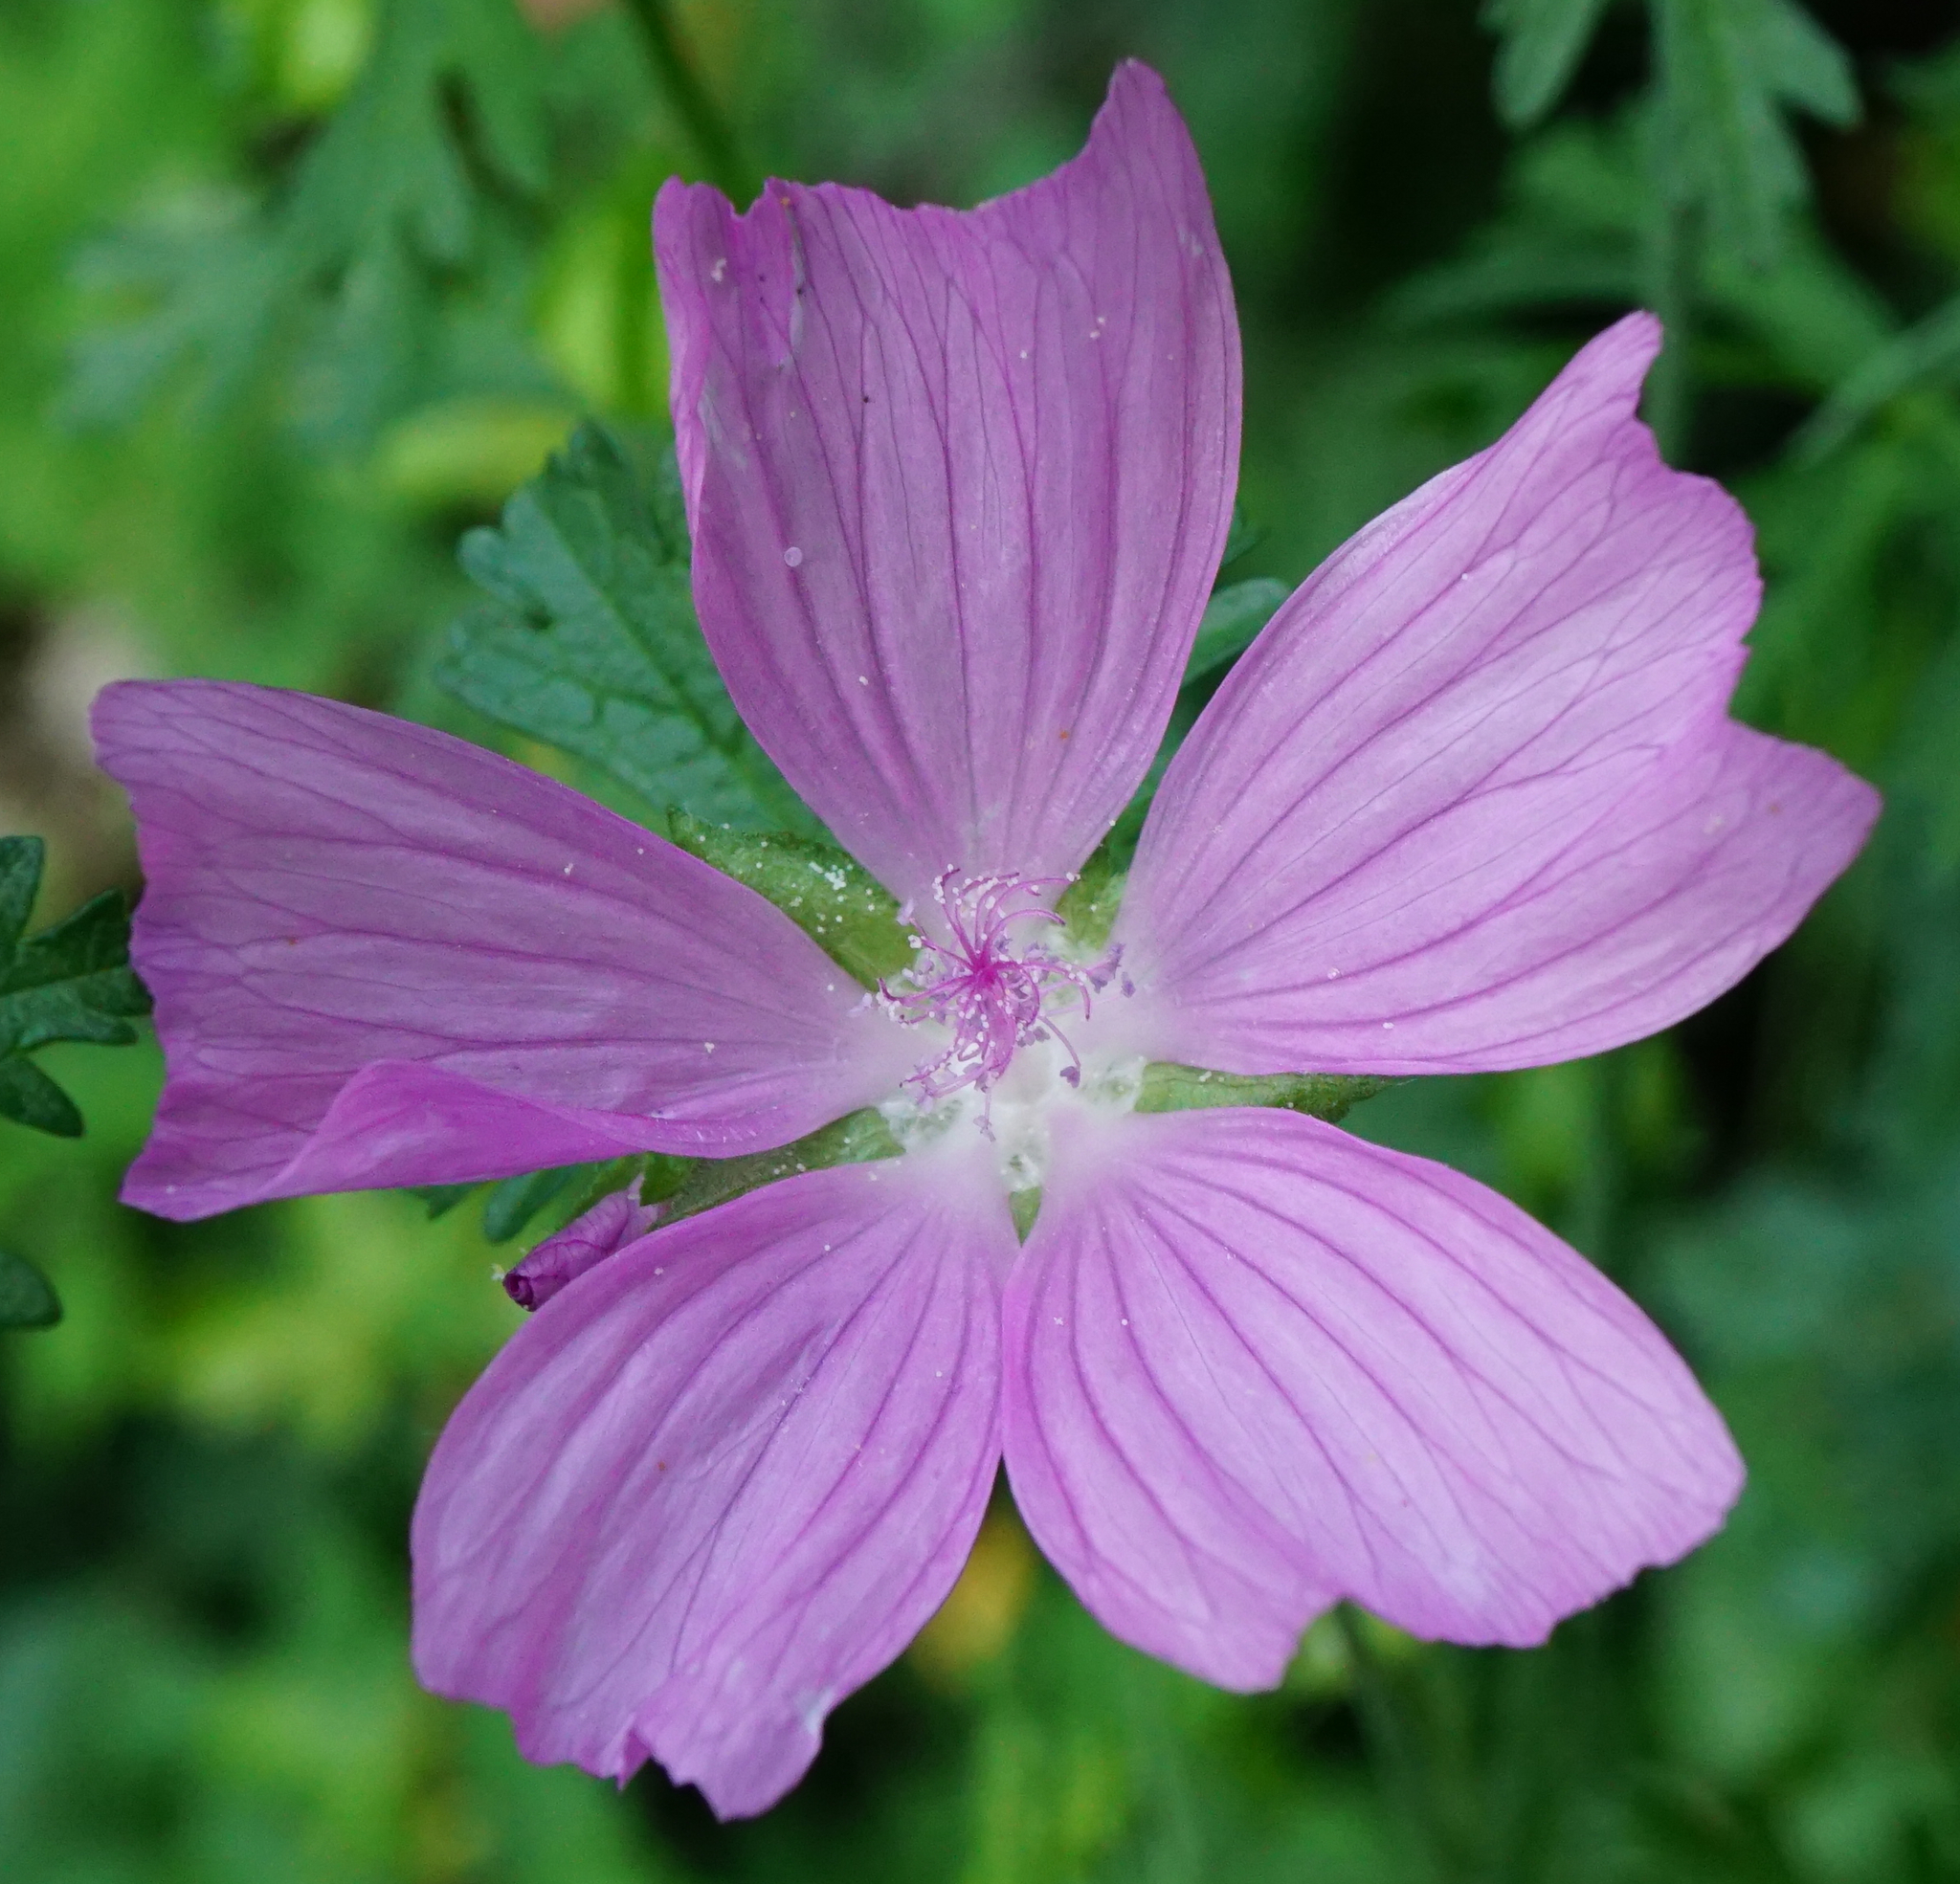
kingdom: Plantae
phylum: Tracheophyta
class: Magnoliopsida
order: Malvales
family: Malvaceae
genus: Malva
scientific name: Malva moschata
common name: Musk mallow
